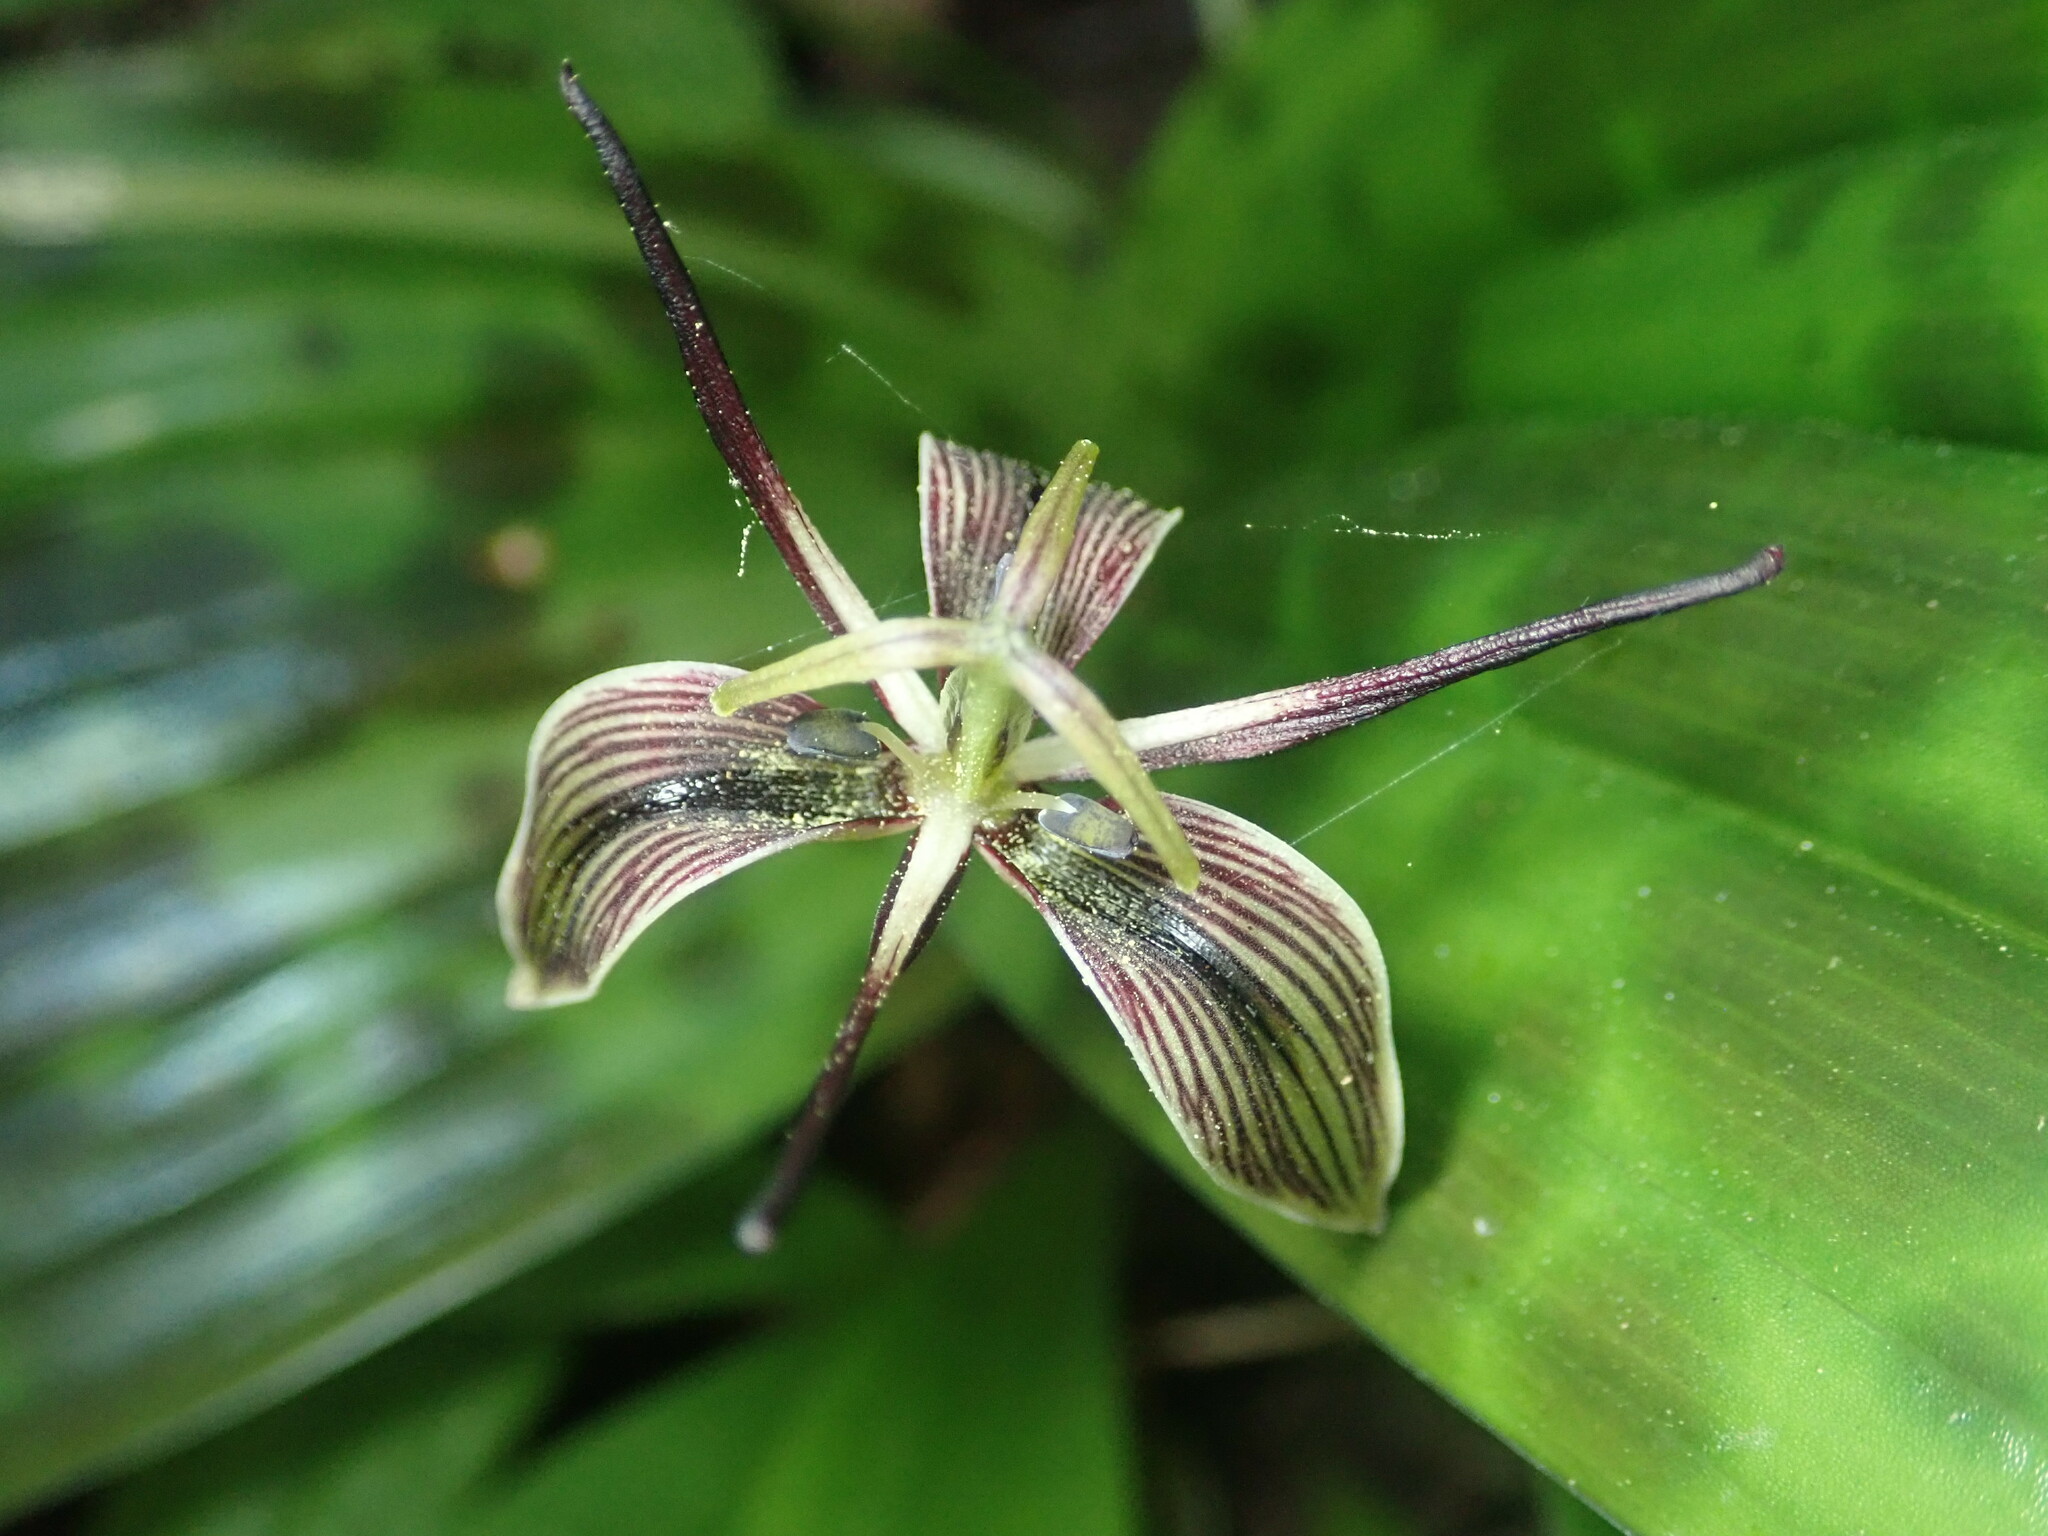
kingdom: Plantae
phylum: Tracheophyta
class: Liliopsida
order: Liliales
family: Liliaceae
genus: Scoliopus
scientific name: Scoliopus bigelovii
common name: Foetid adder's-tongue
